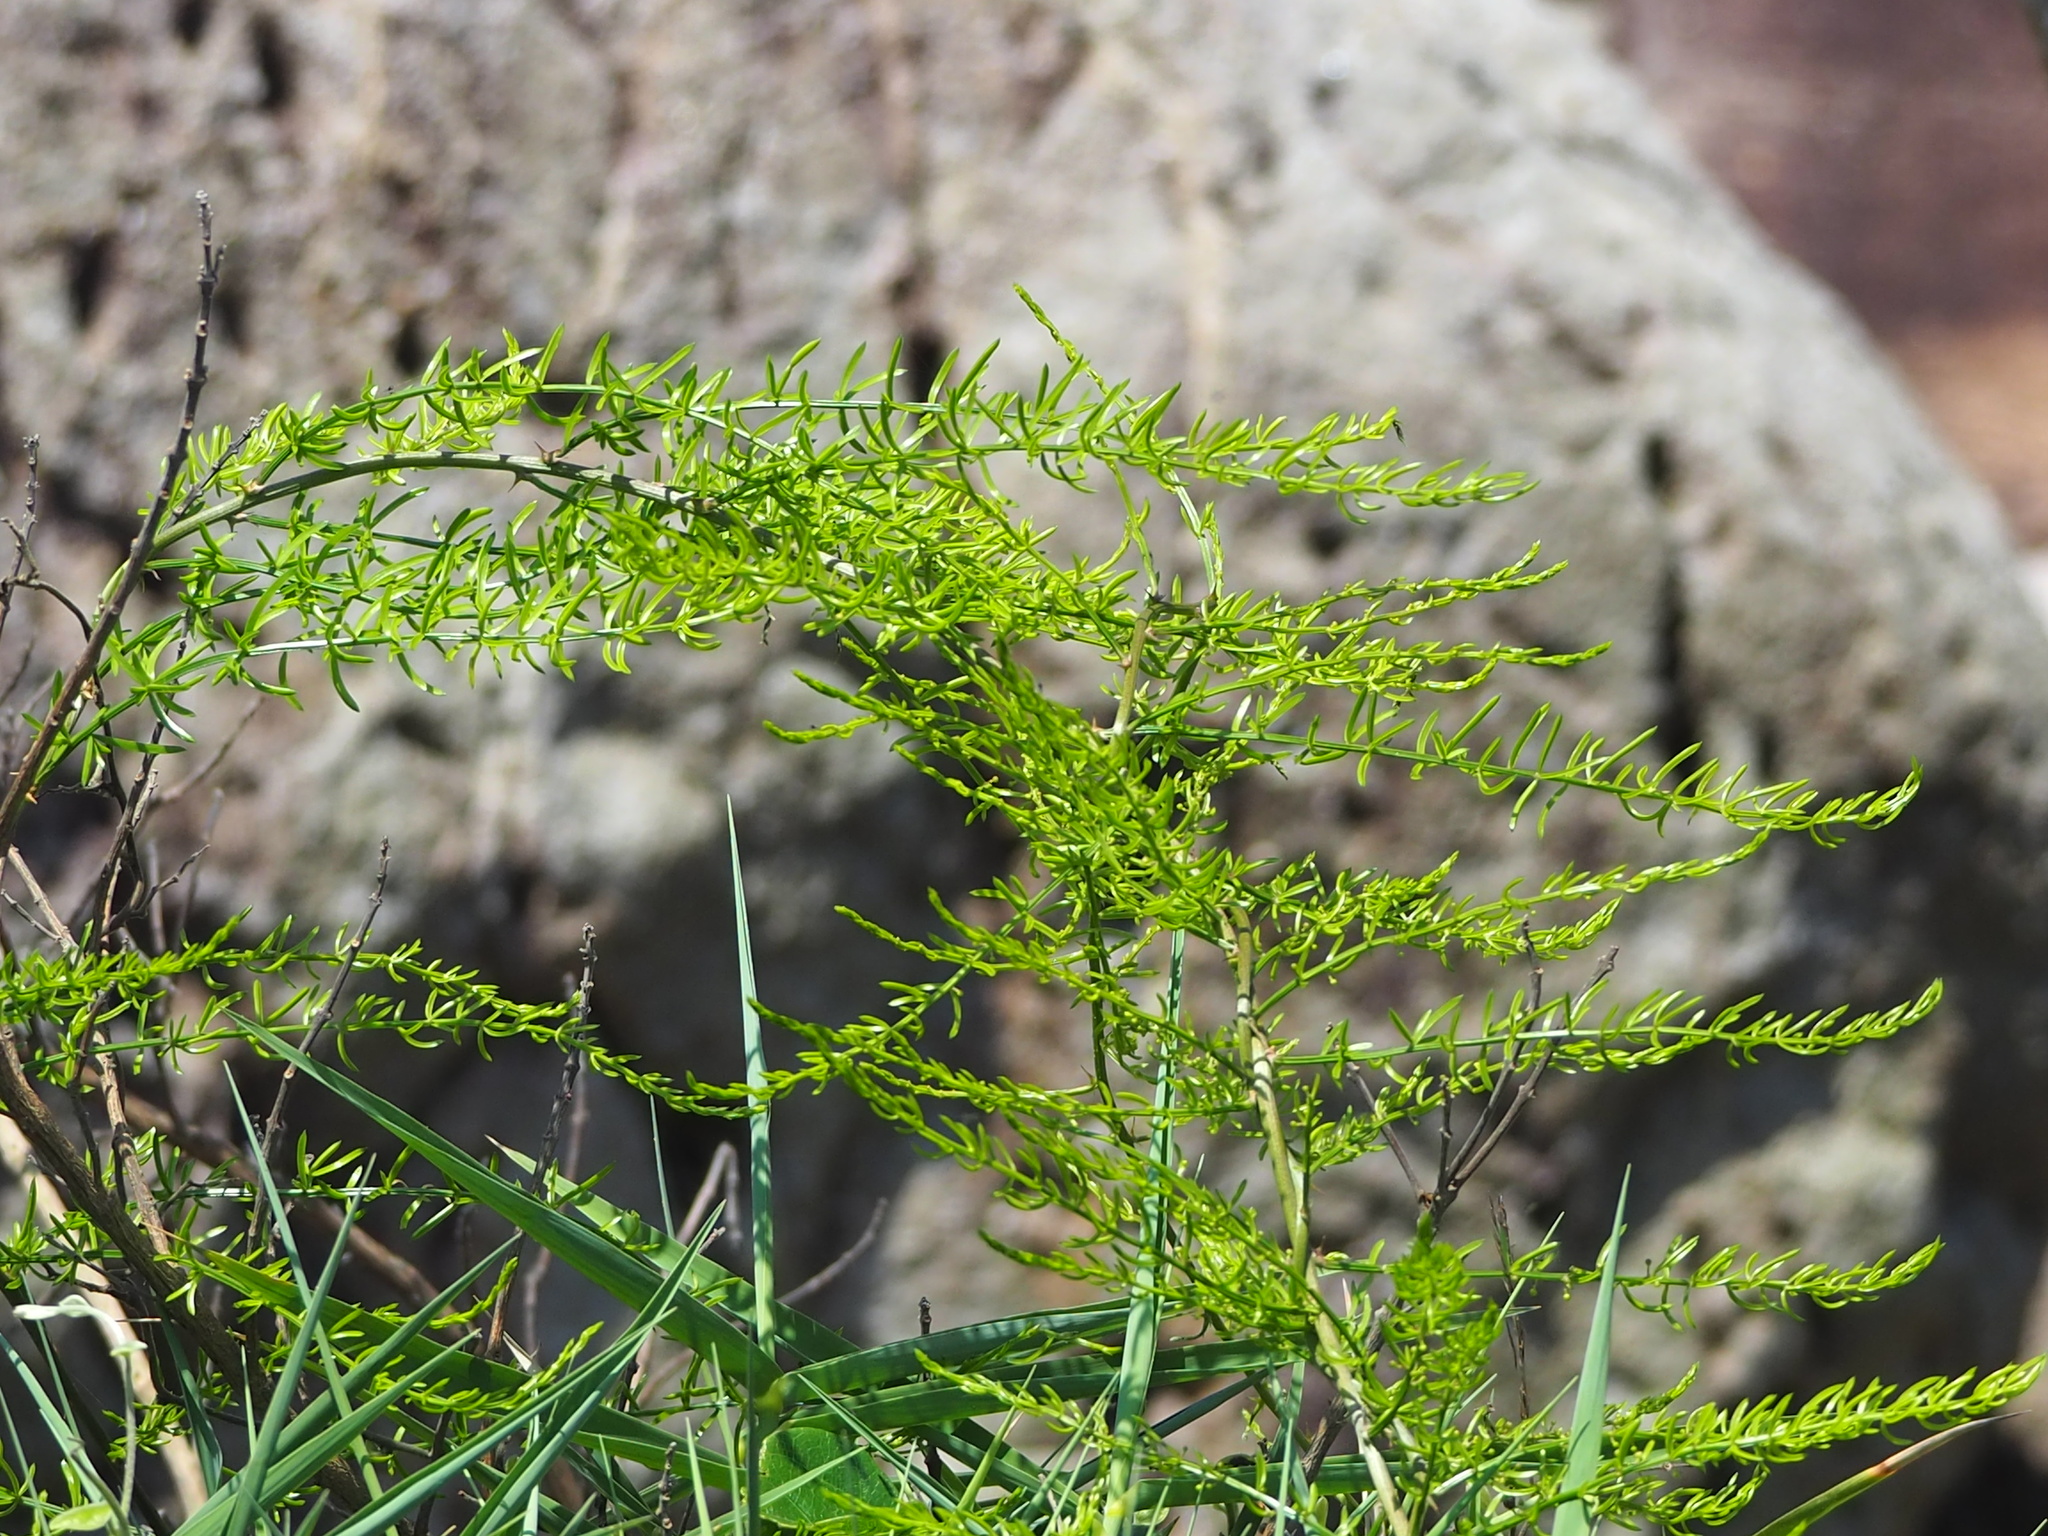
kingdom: Plantae
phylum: Tracheophyta
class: Liliopsida
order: Asparagales
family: Asparagaceae
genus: Asparagus
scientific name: Asparagus cochinchinensis
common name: Chinese asparagus
